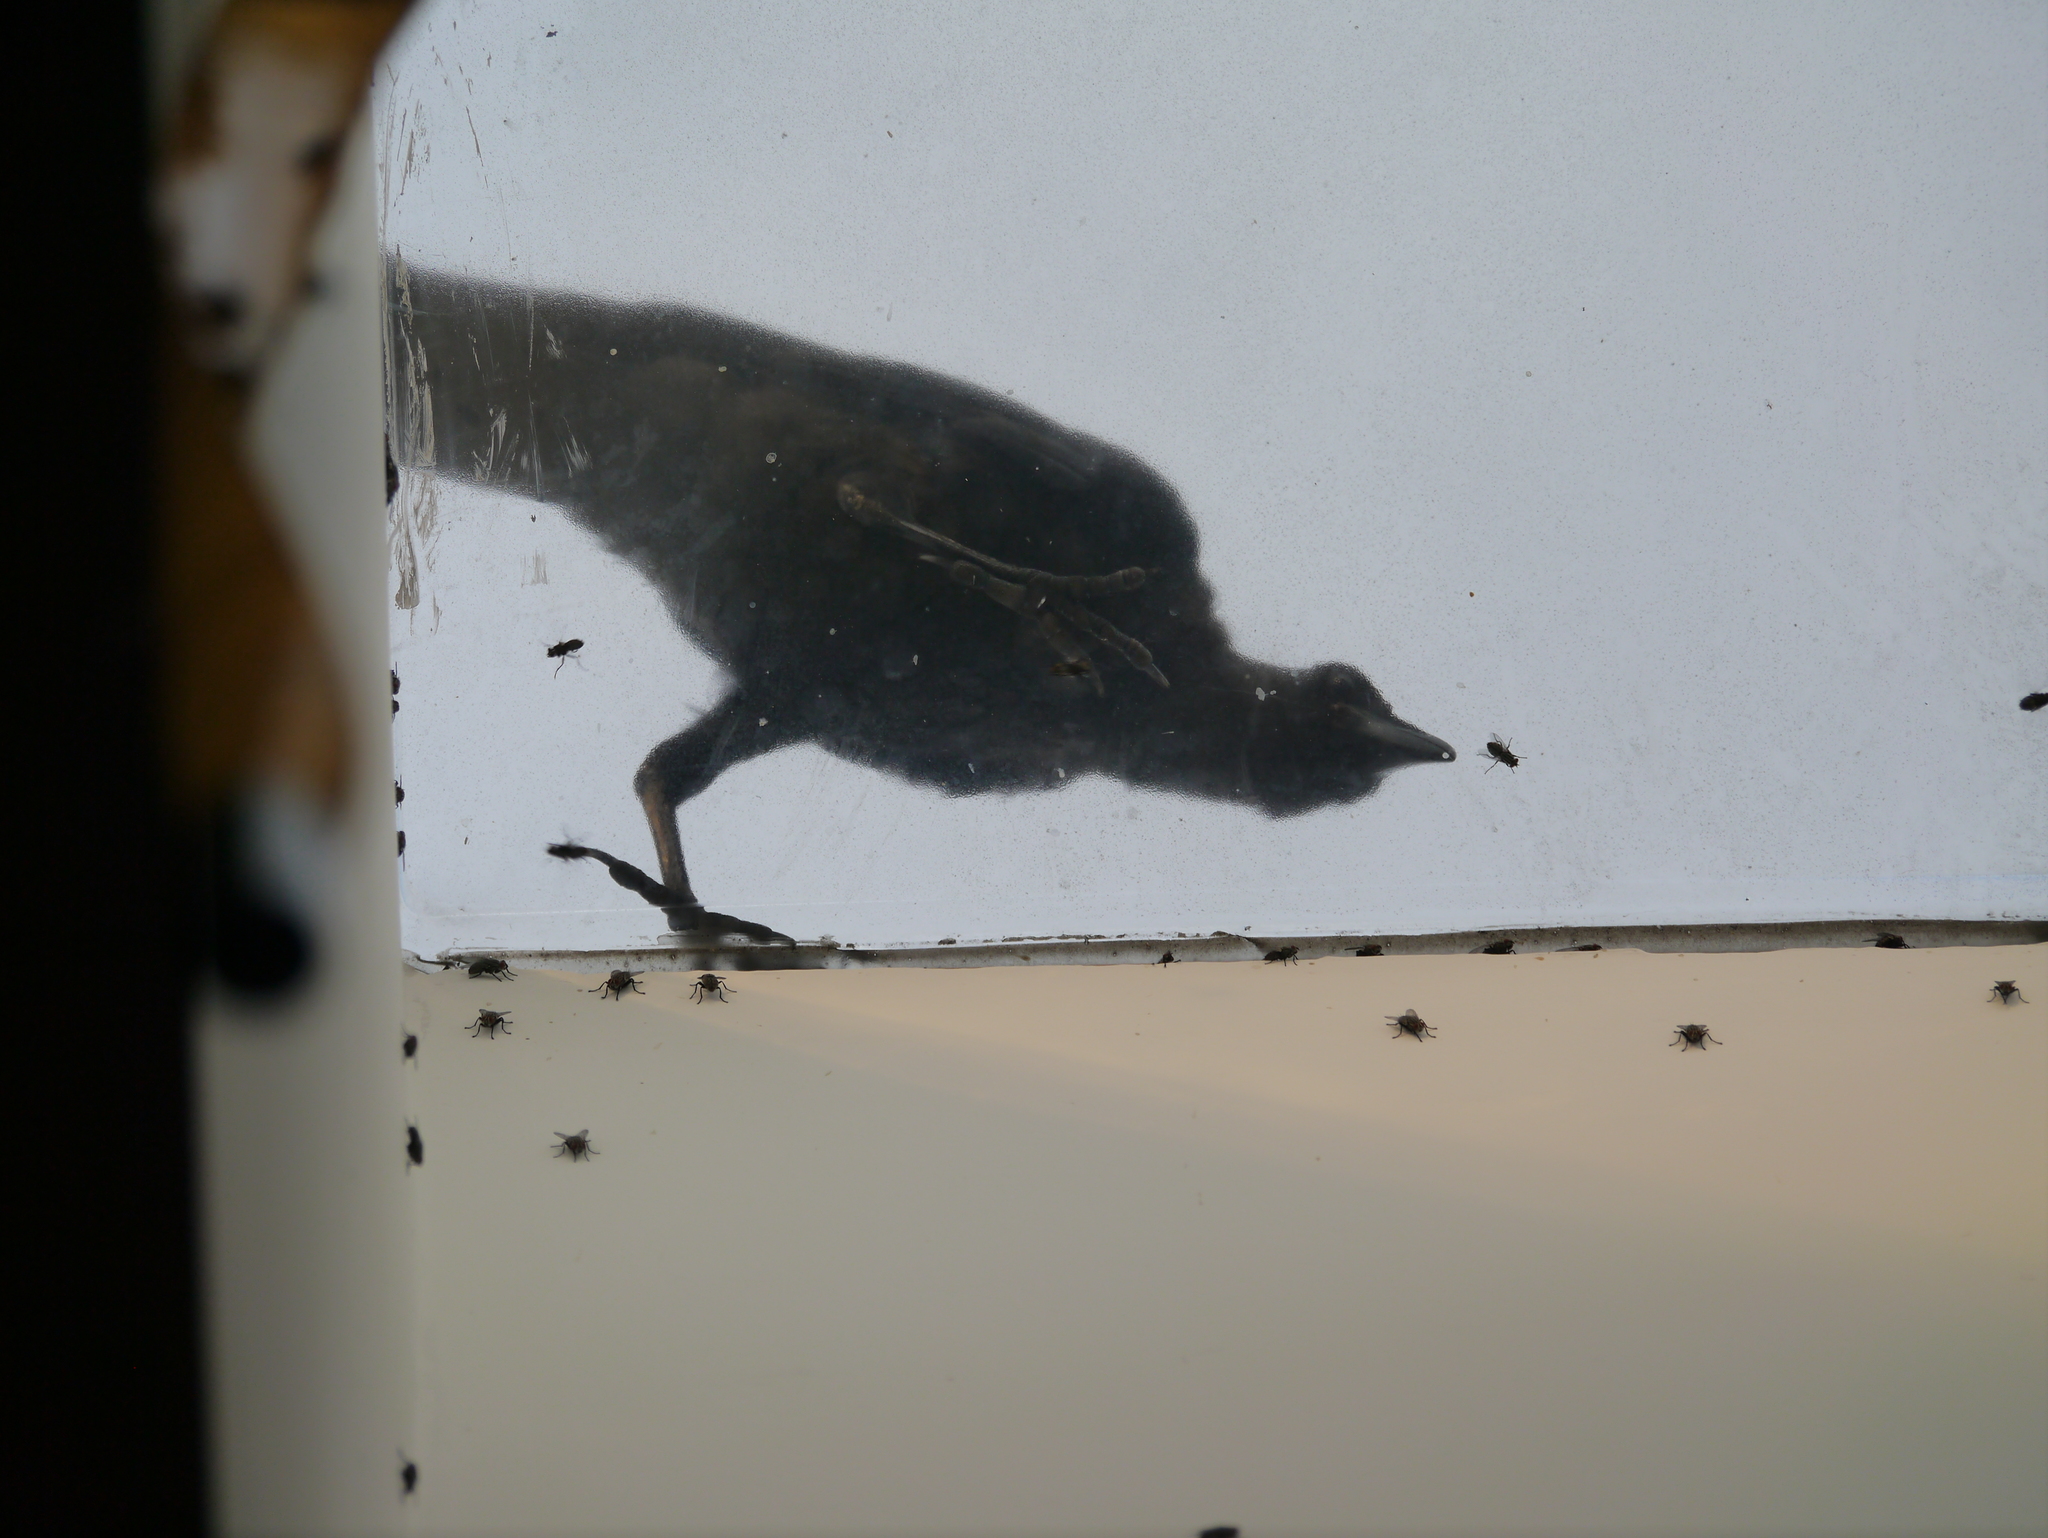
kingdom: Animalia
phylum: Chordata
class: Aves
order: Passeriformes
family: Corvidae
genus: Corvus
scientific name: Corvus brachyrhynchos
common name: American crow
